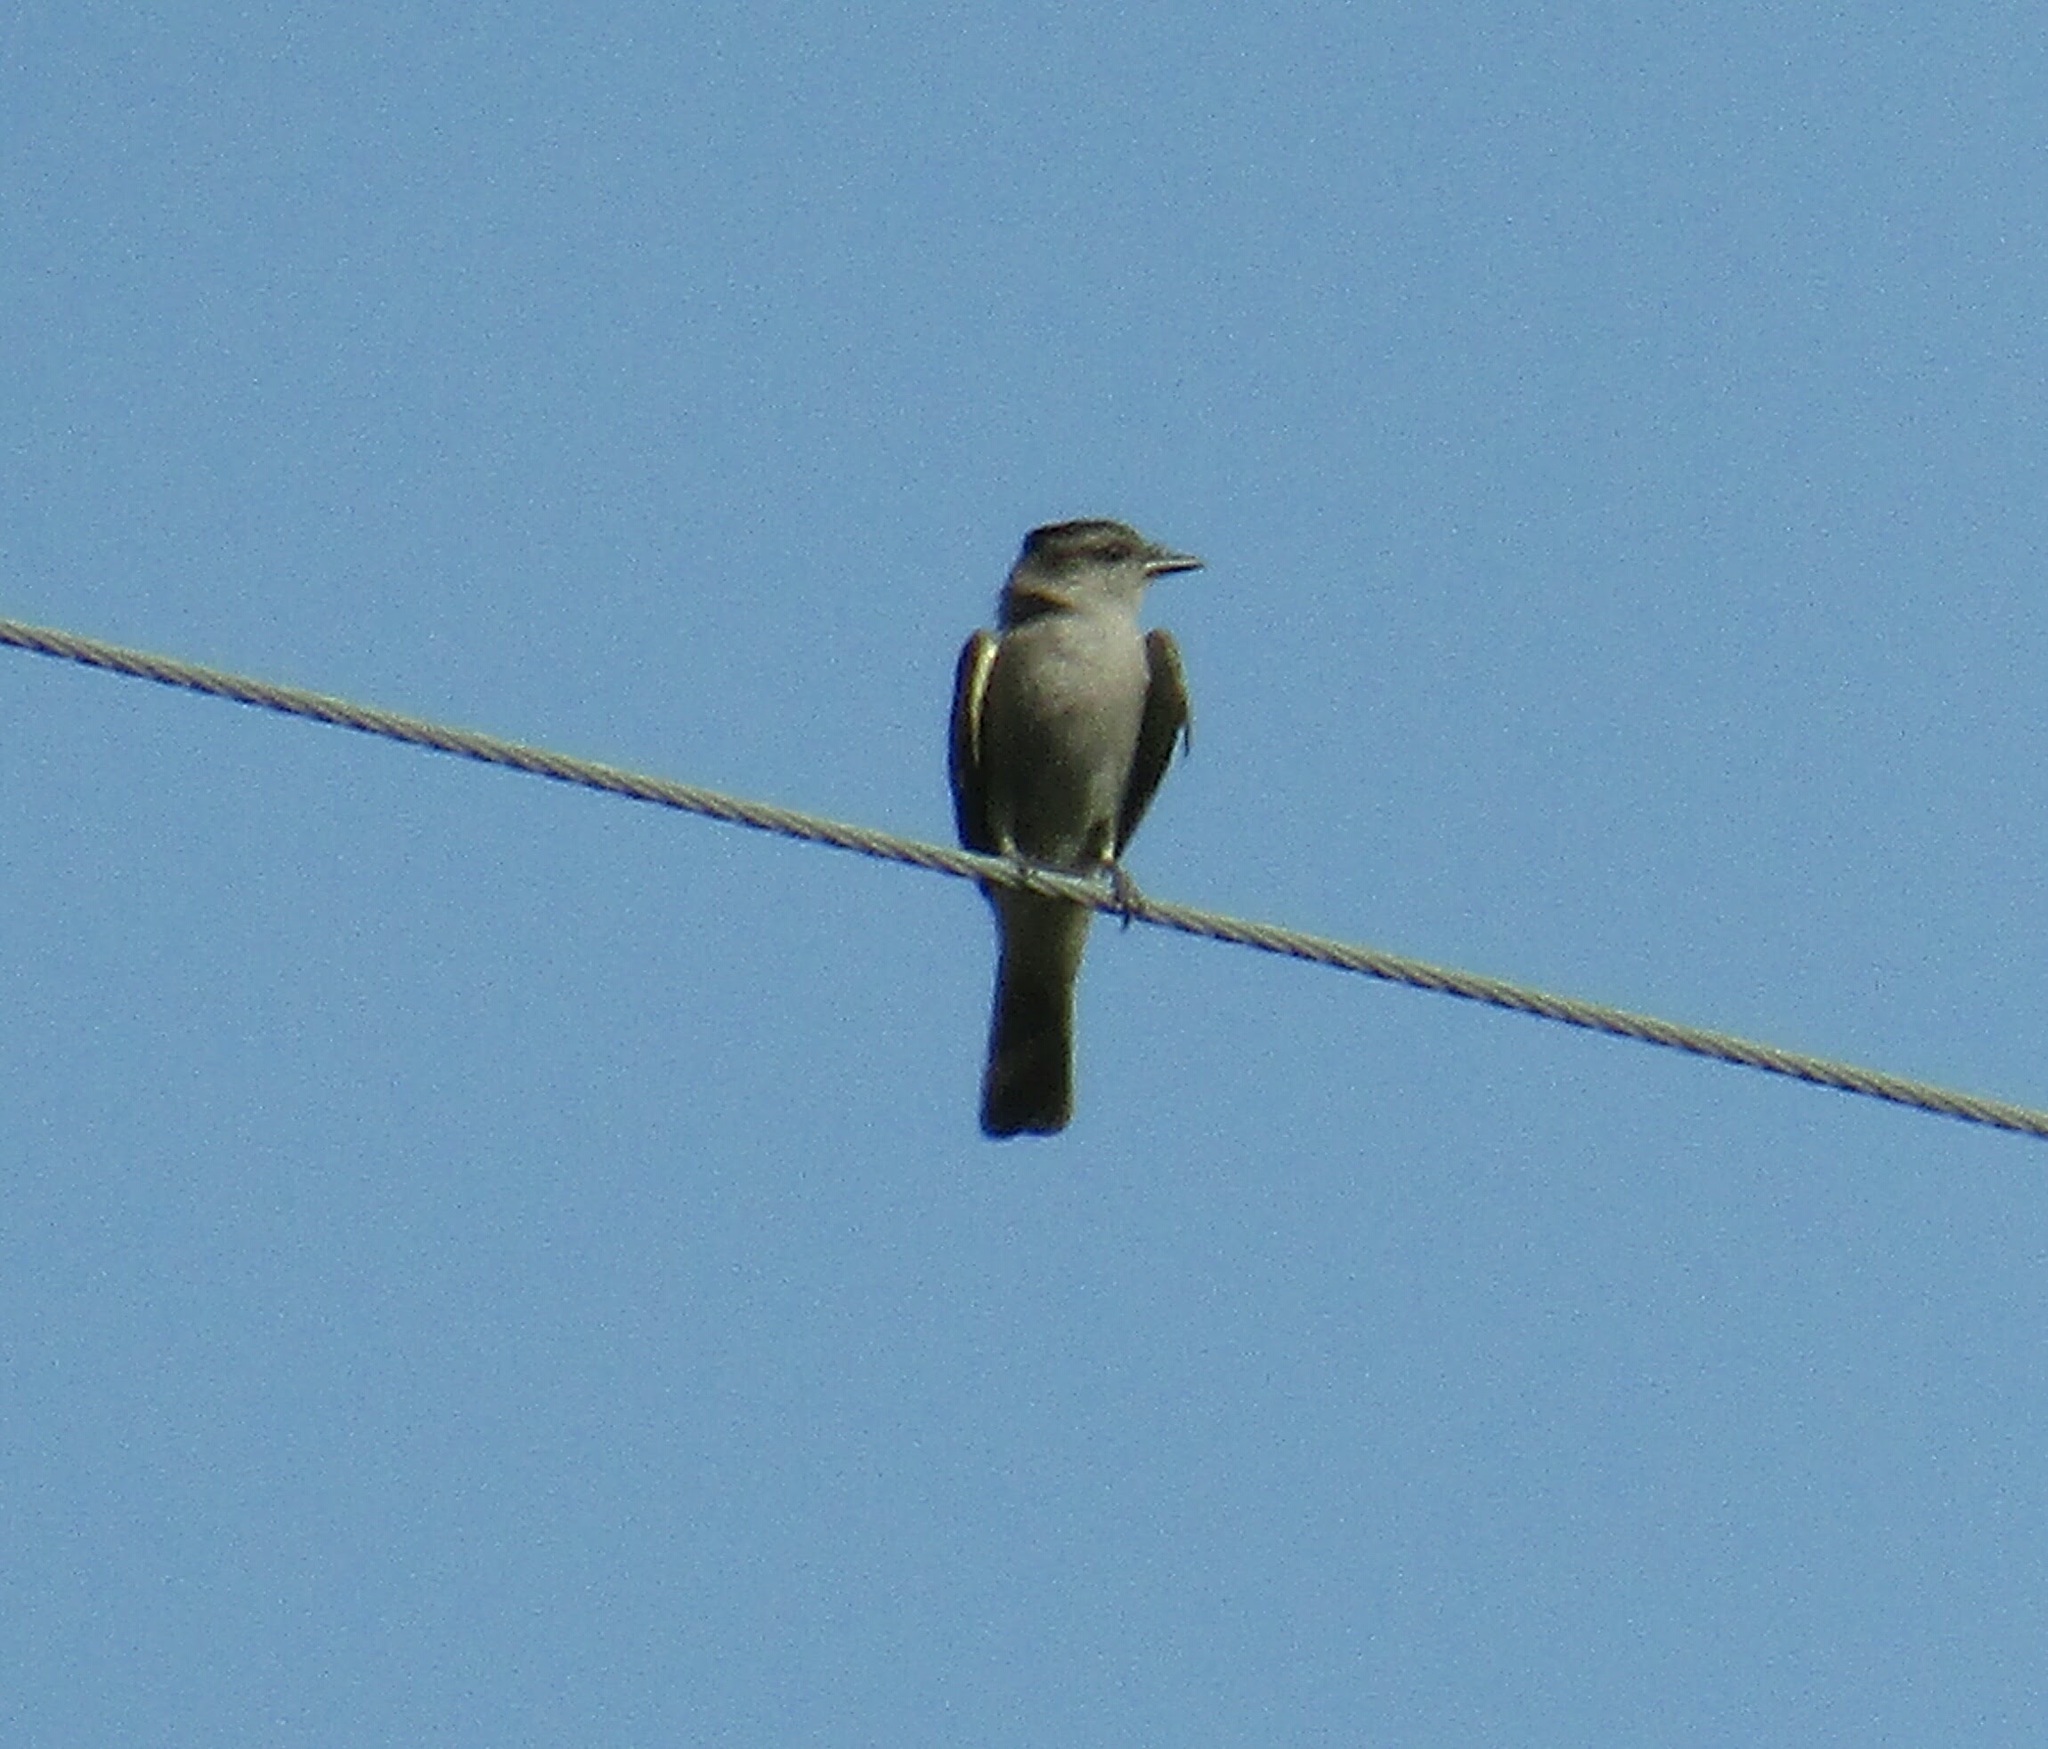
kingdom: Animalia
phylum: Chordata
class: Aves
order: Passeriformes
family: Tyrannidae
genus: Empidonomus
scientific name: Empidonomus aurantioatrocristatus
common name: Crowned slaty flycatcher
